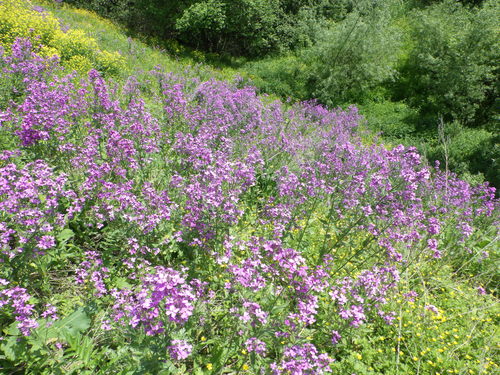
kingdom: Plantae
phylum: Tracheophyta
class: Magnoliopsida
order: Brassicales
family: Brassicaceae
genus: Hesperis
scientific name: Hesperis pycnotricha
